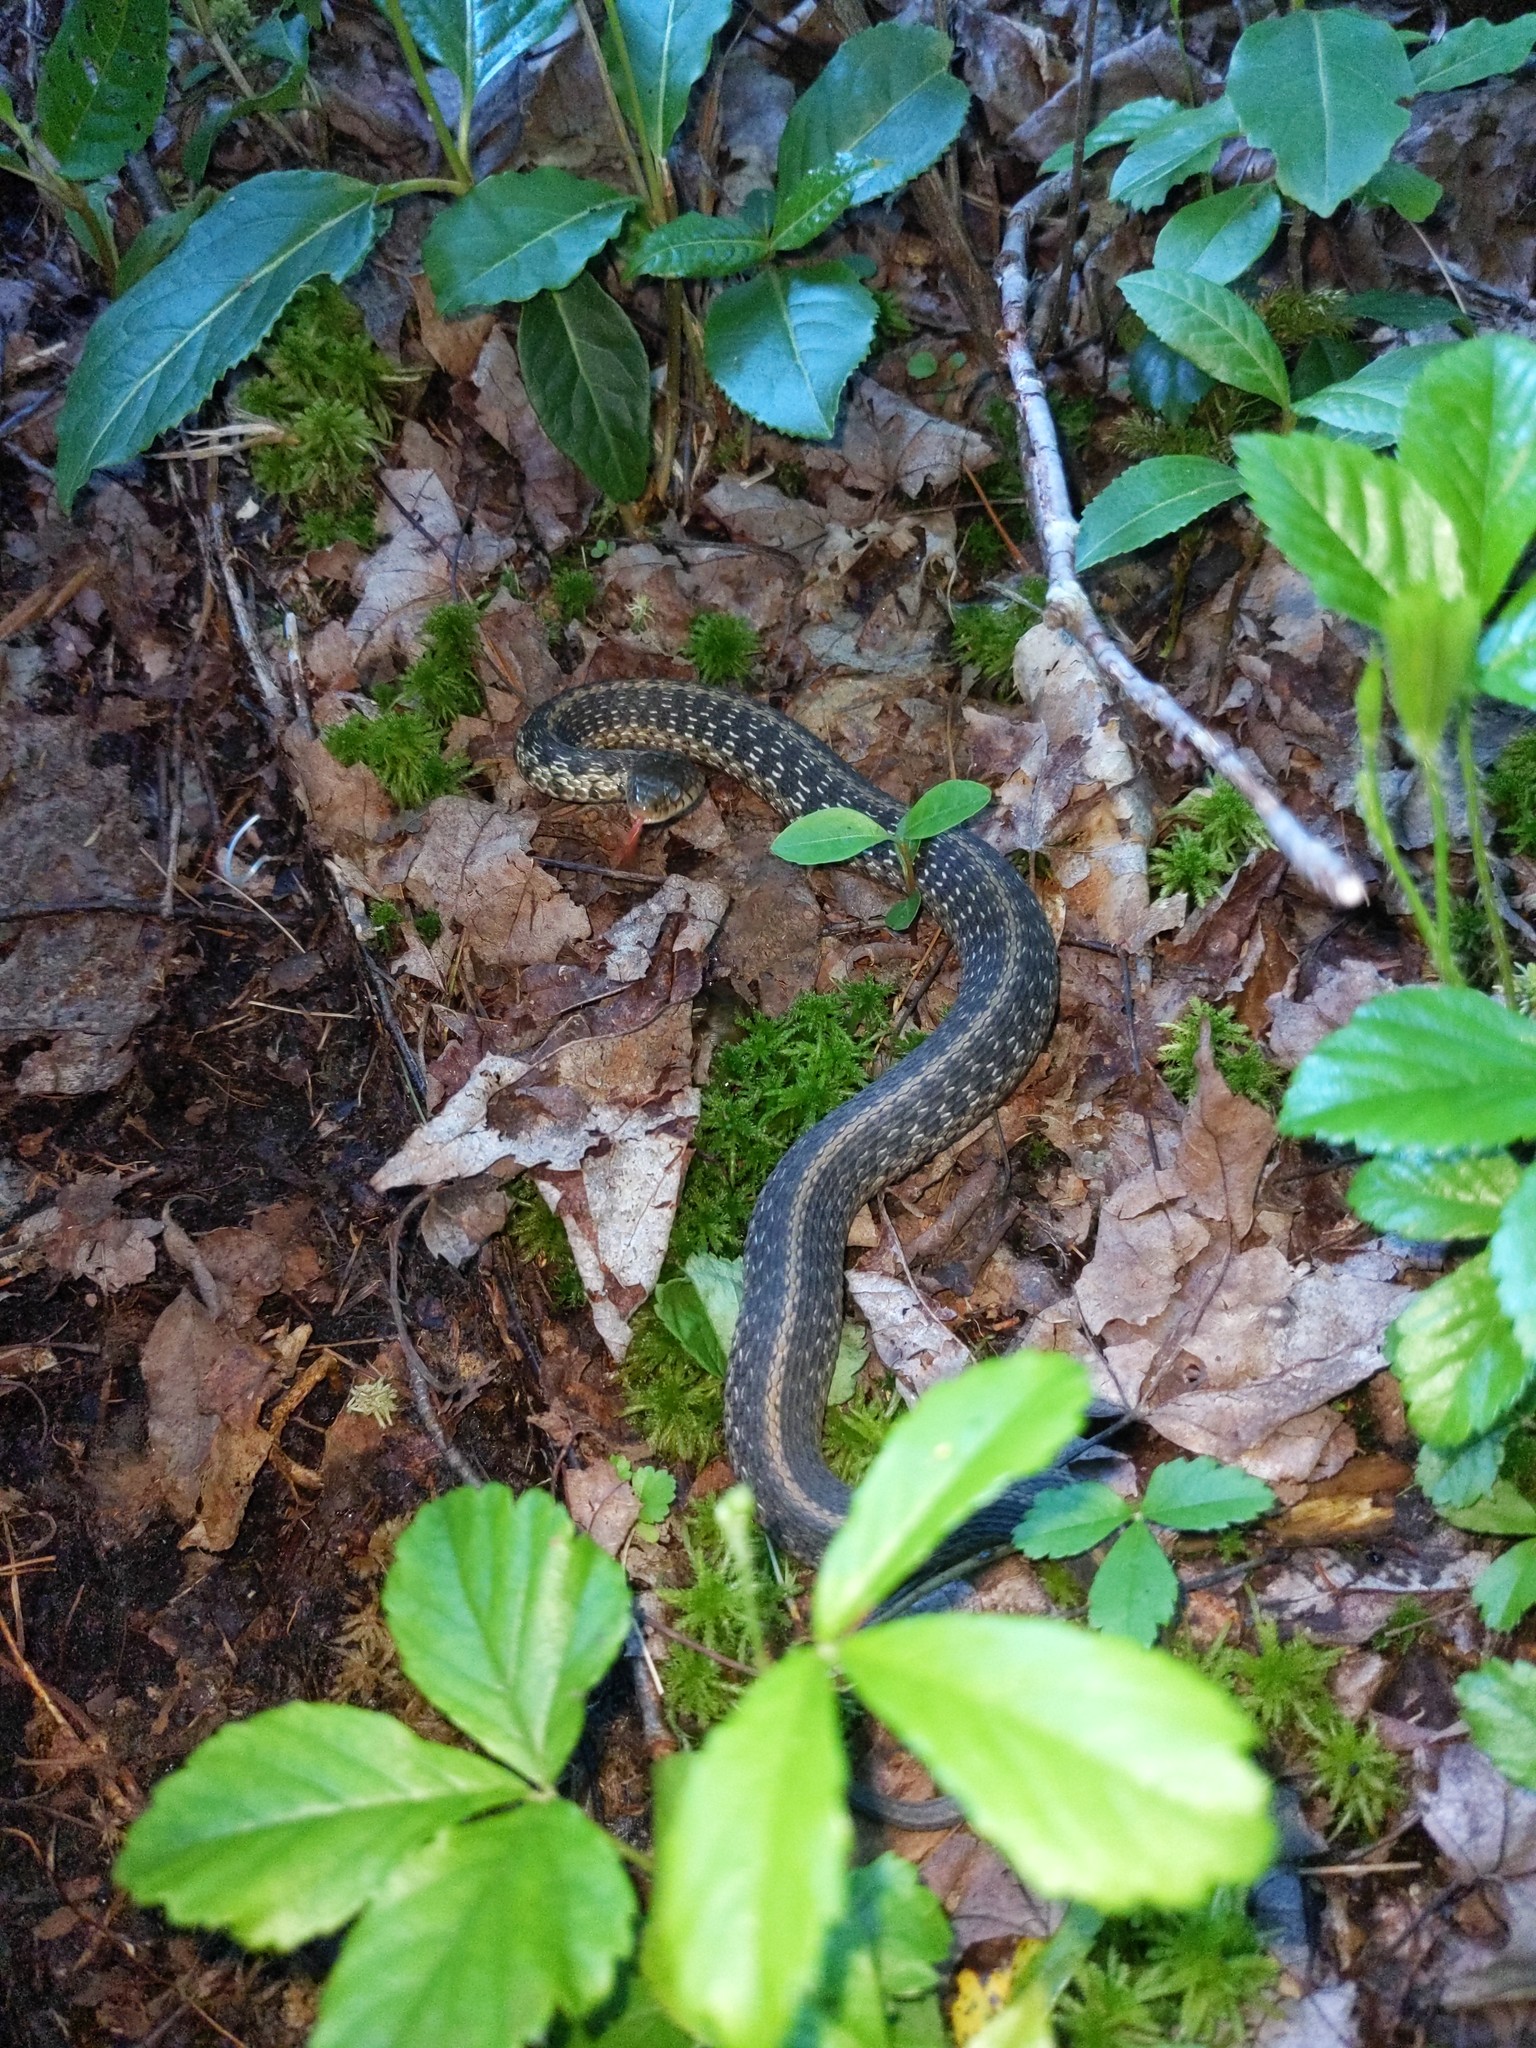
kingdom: Animalia
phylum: Chordata
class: Squamata
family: Colubridae
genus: Thamnophis
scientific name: Thamnophis sirtalis
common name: Common garter snake
